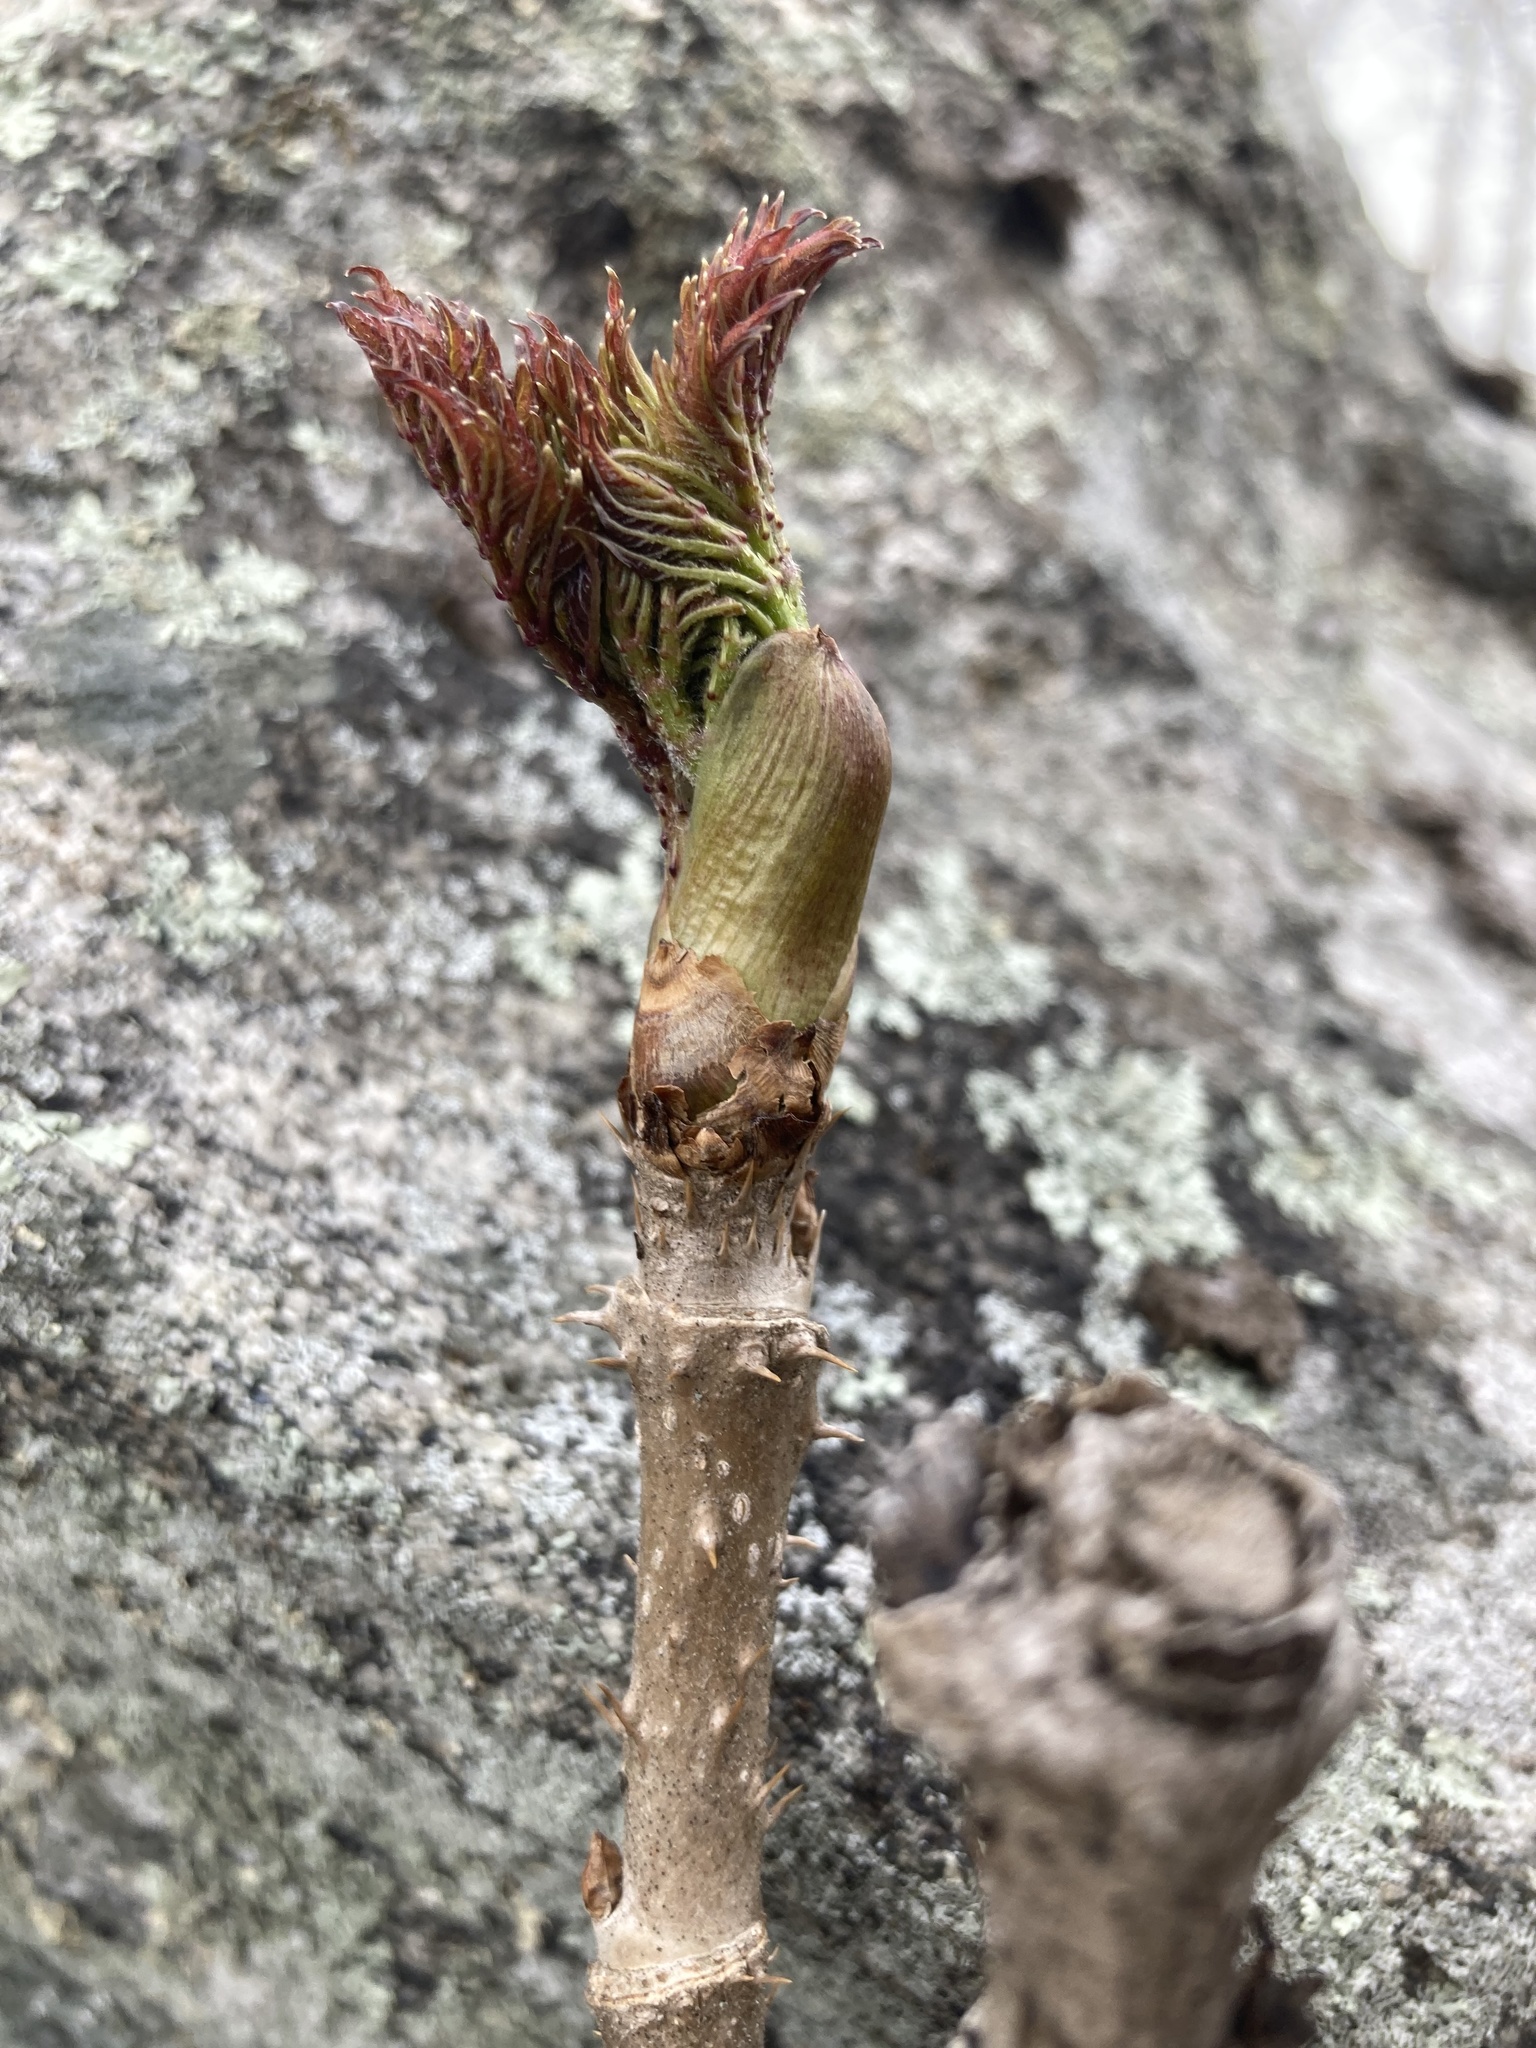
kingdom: Plantae
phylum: Tracheophyta
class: Magnoliopsida
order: Apiales
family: Araliaceae
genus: Aralia
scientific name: Aralia elata
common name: Japanese angelica-tree
